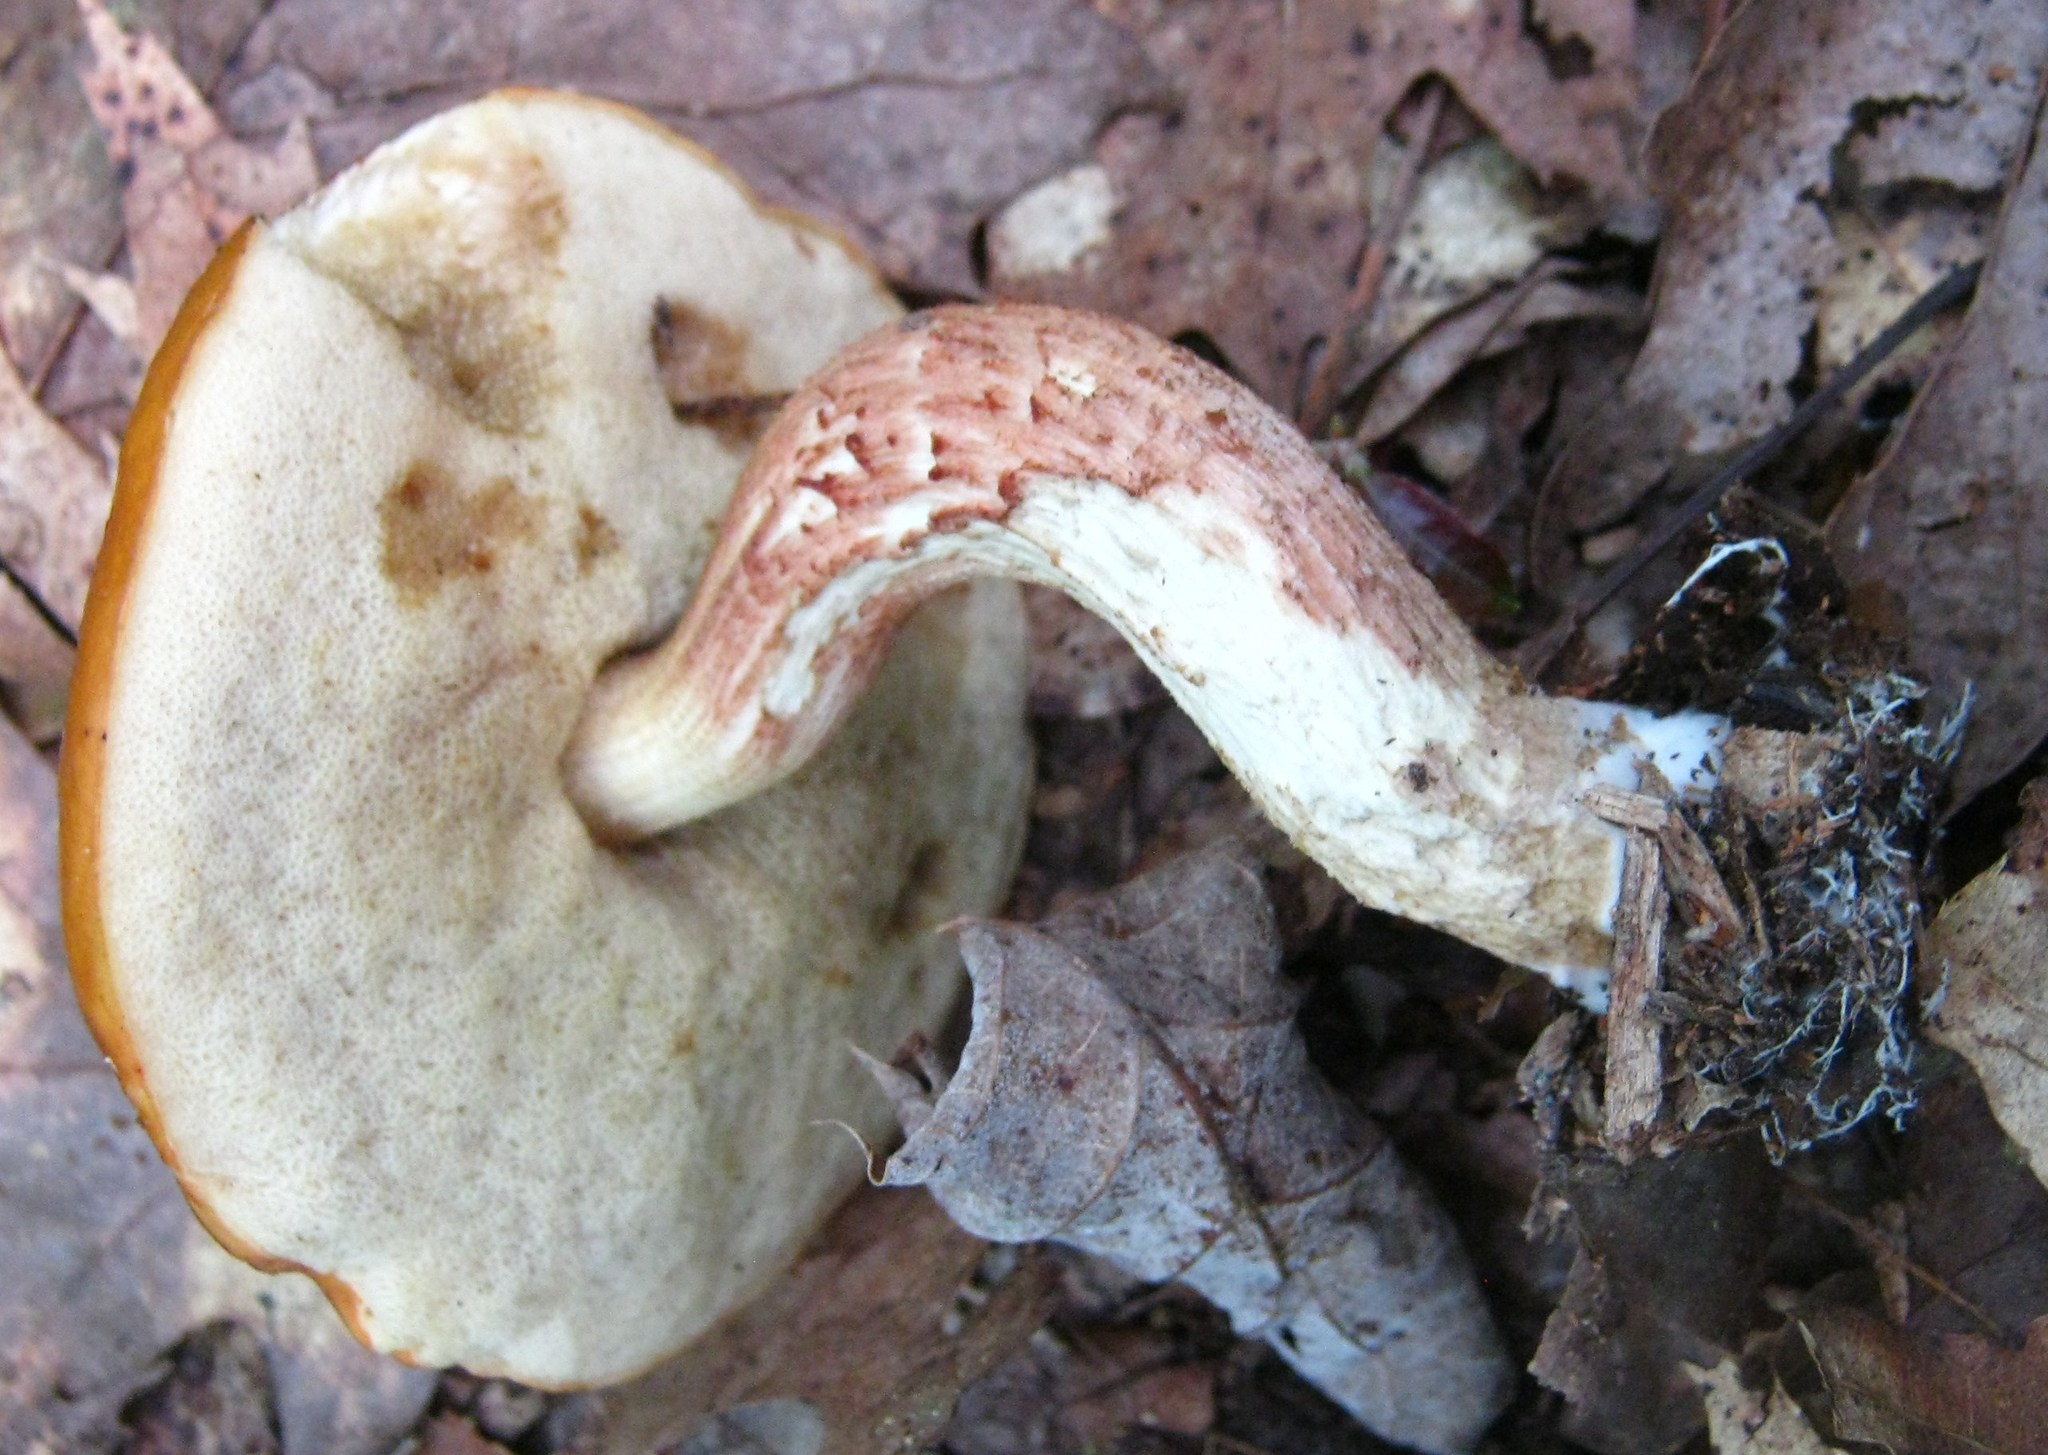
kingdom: Fungi
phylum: Basidiomycota
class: Agaricomycetes
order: Boletales
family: Boletaceae
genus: Leccinum
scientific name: Leccinum longicurvipes
